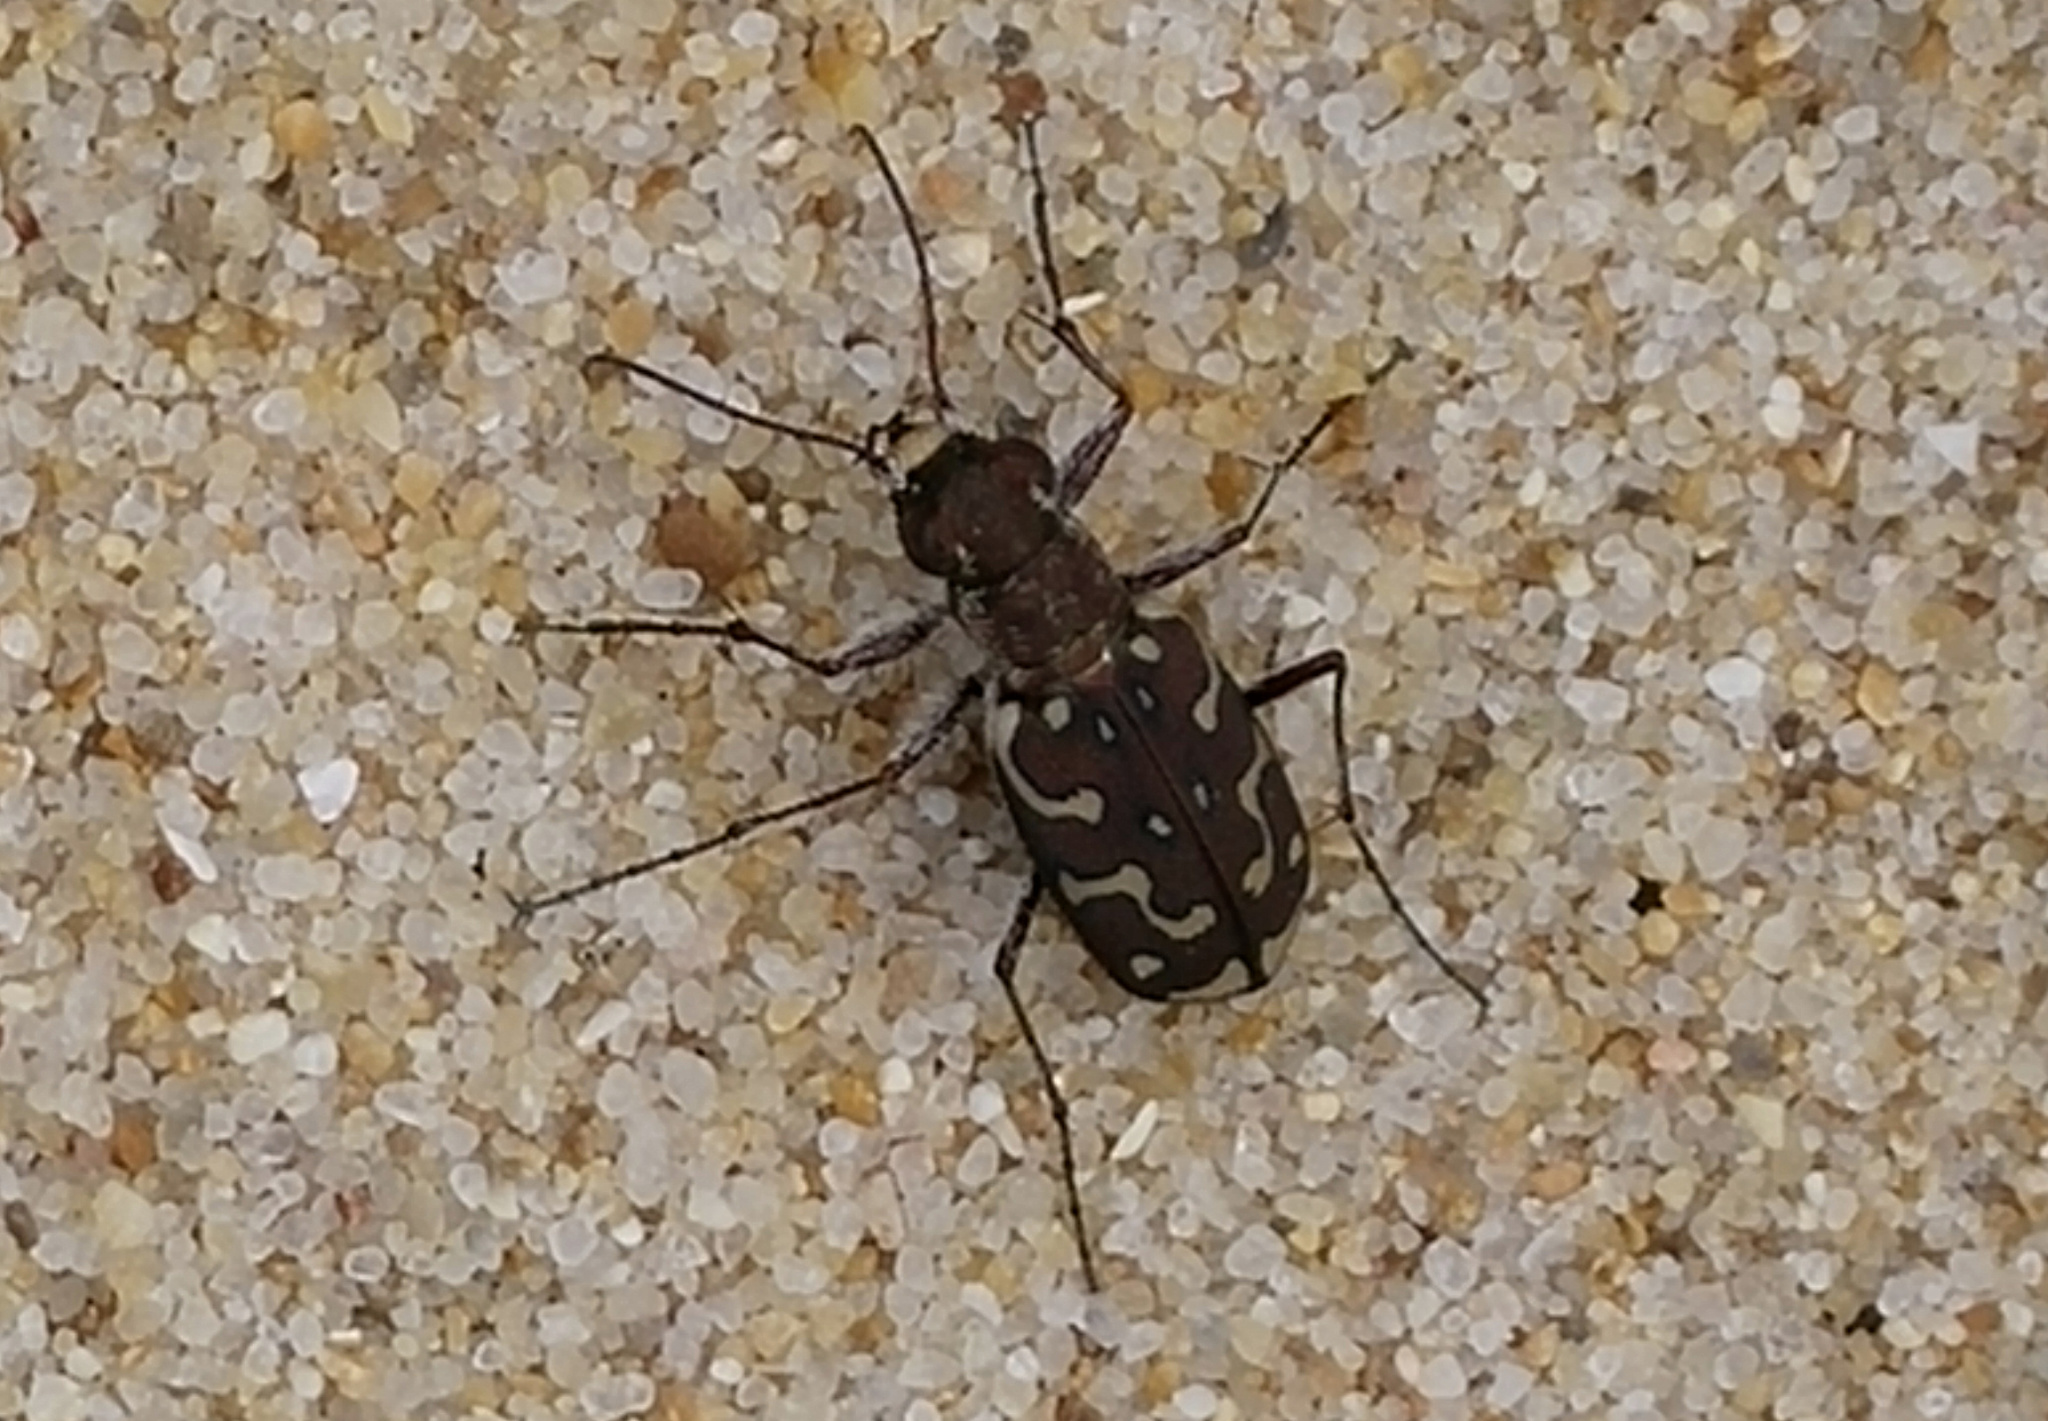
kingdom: Animalia
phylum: Arthropoda
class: Insecta
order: Coleoptera
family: Carabidae
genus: Lophyra
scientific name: Lophyra flexuosa
